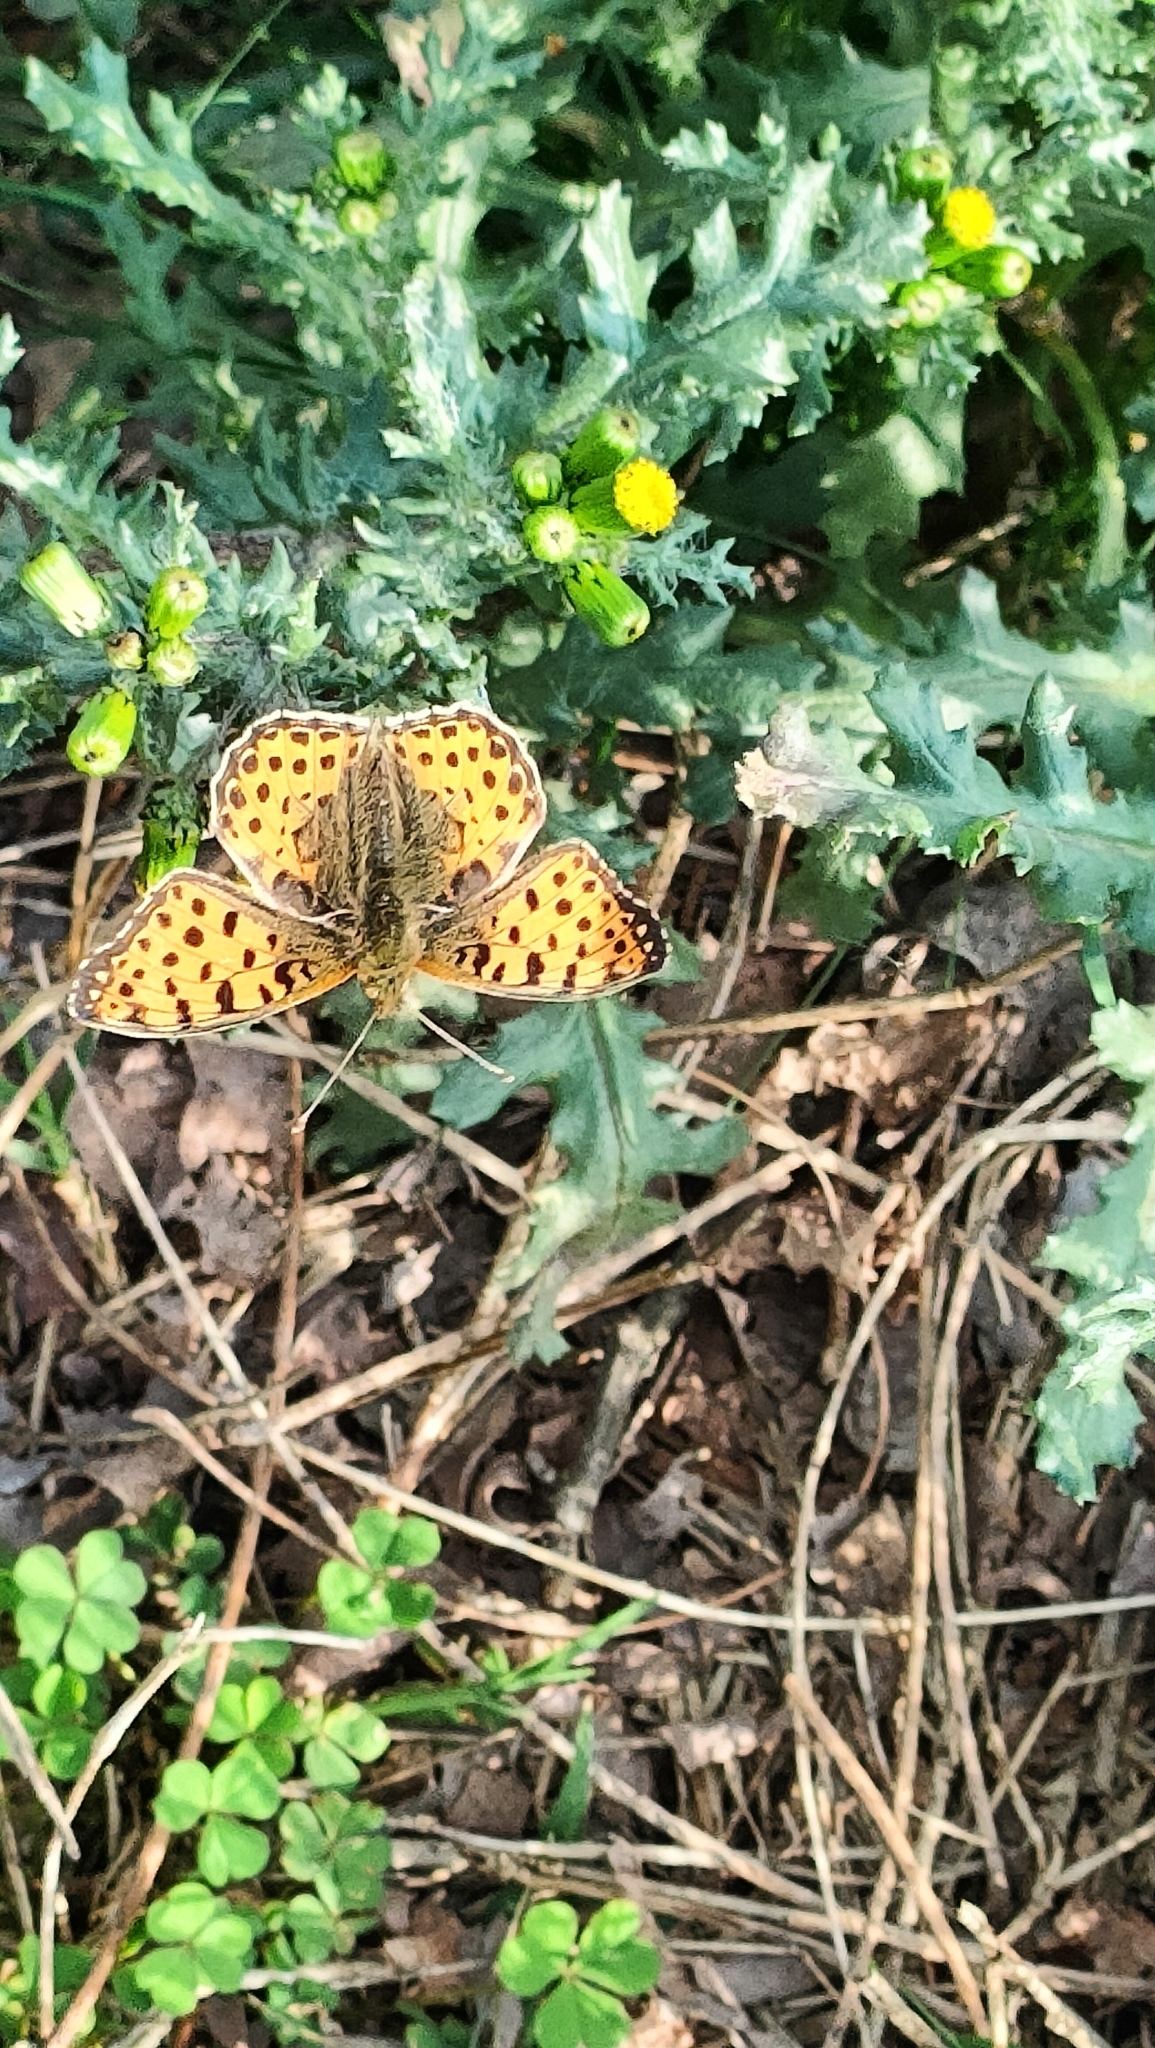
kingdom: Animalia
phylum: Arthropoda
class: Insecta
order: Lepidoptera
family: Nymphalidae
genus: Issoria
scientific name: Issoria lathonia
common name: Queen of spain fritillary
